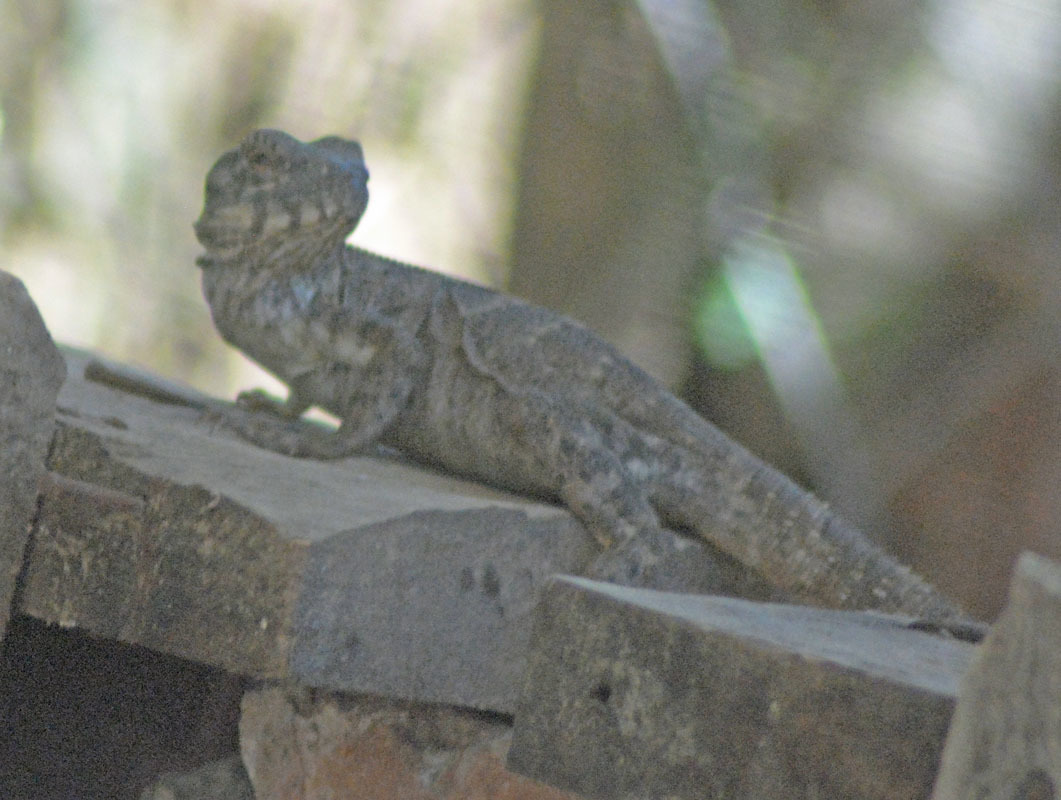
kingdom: Animalia
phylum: Chordata
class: Squamata
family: Iguanidae
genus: Ctenosaura
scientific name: Ctenosaura pectinata
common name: Guerreran spiny-tailed iguana
